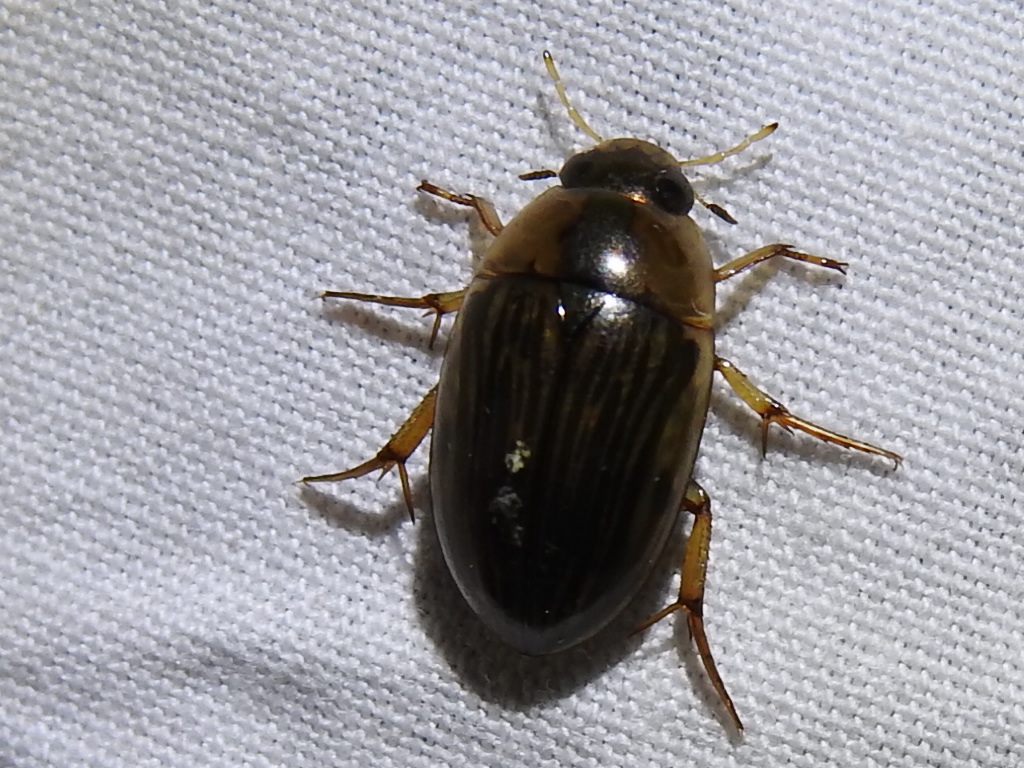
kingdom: Animalia
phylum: Arthropoda
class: Insecta
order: Coleoptera
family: Hydrophilidae
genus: Tropisternus
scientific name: Tropisternus collaris
